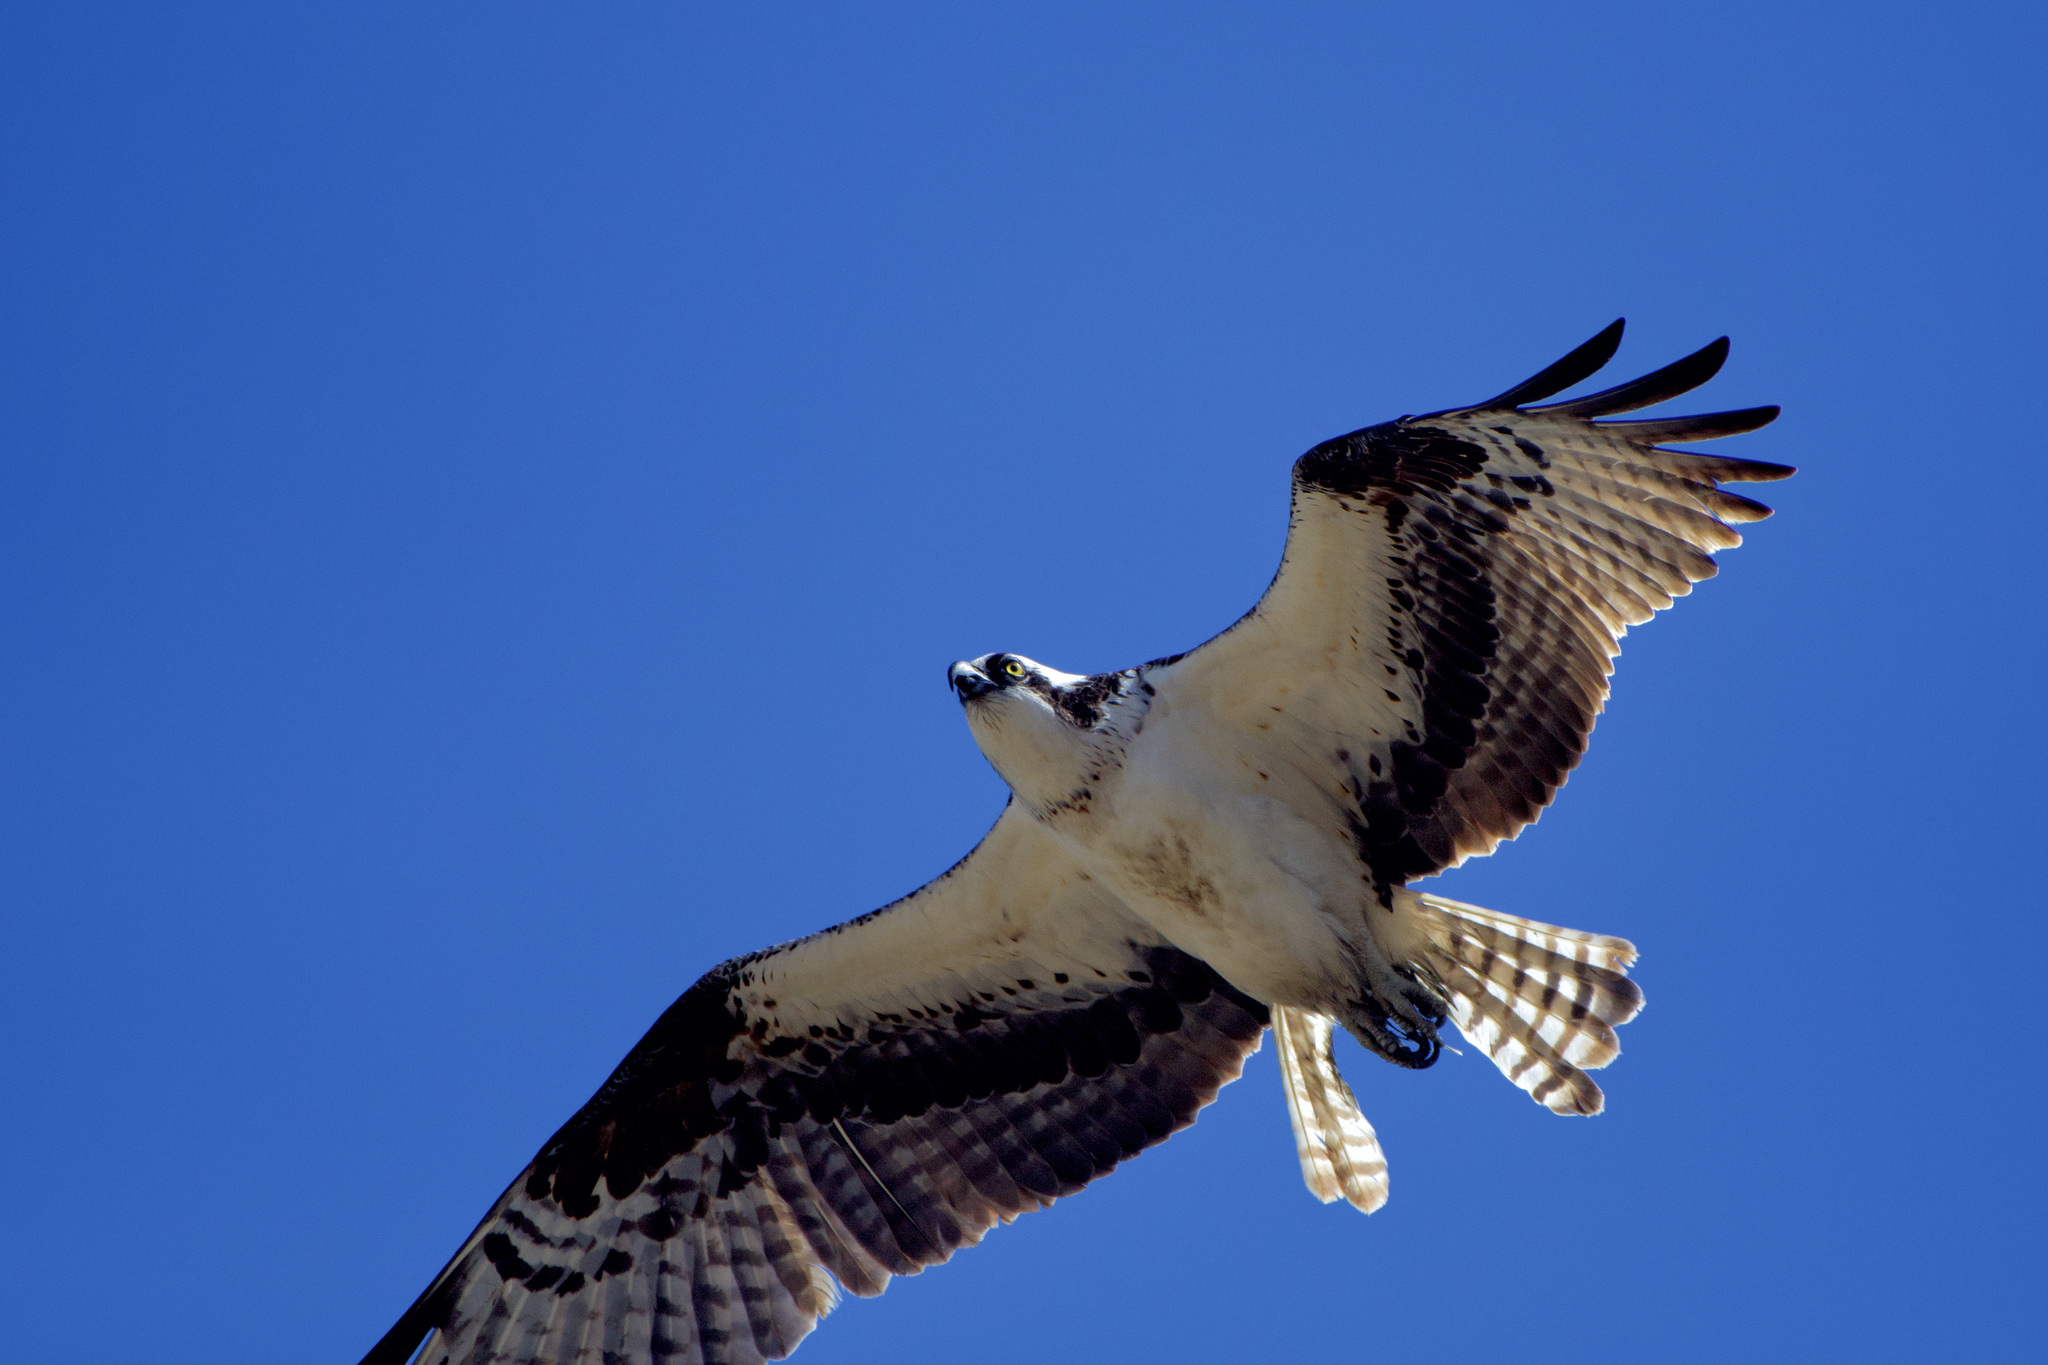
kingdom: Animalia
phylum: Chordata
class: Aves
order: Accipitriformes
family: Pandionidae
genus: Pandion
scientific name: Pandion haliaetus
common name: Osprey
